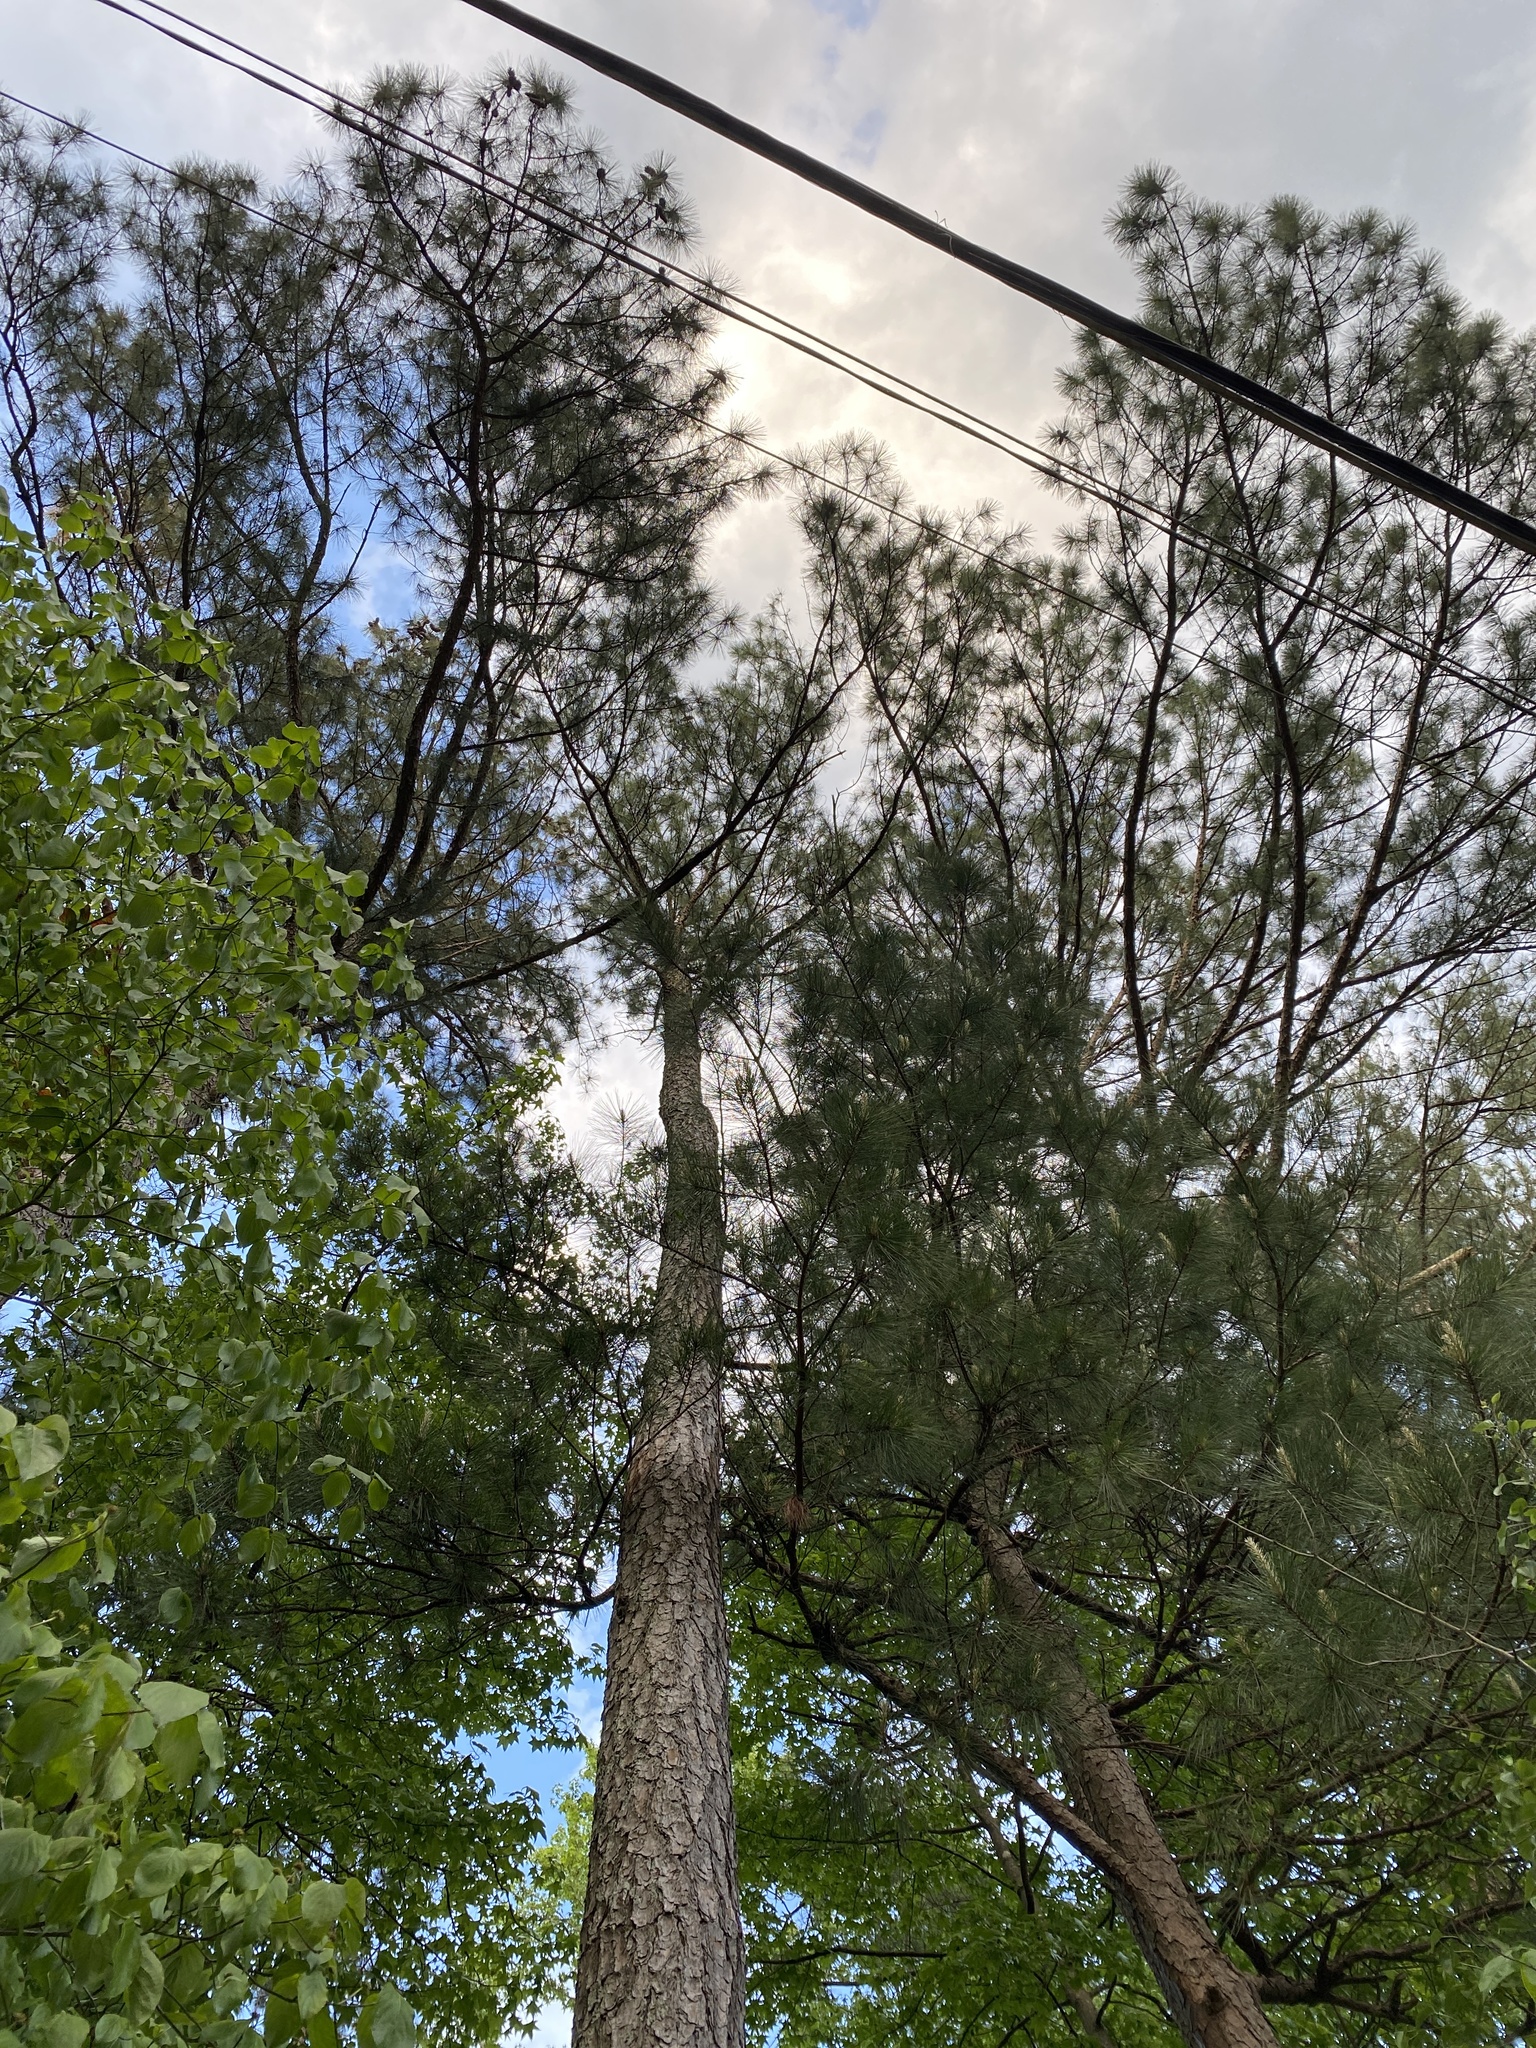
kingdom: Plantae
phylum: Tracheophyta
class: Pinopsida
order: Pinales
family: Pinaceae
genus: Pinus
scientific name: Pinus taeda
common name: Loblolly pine
